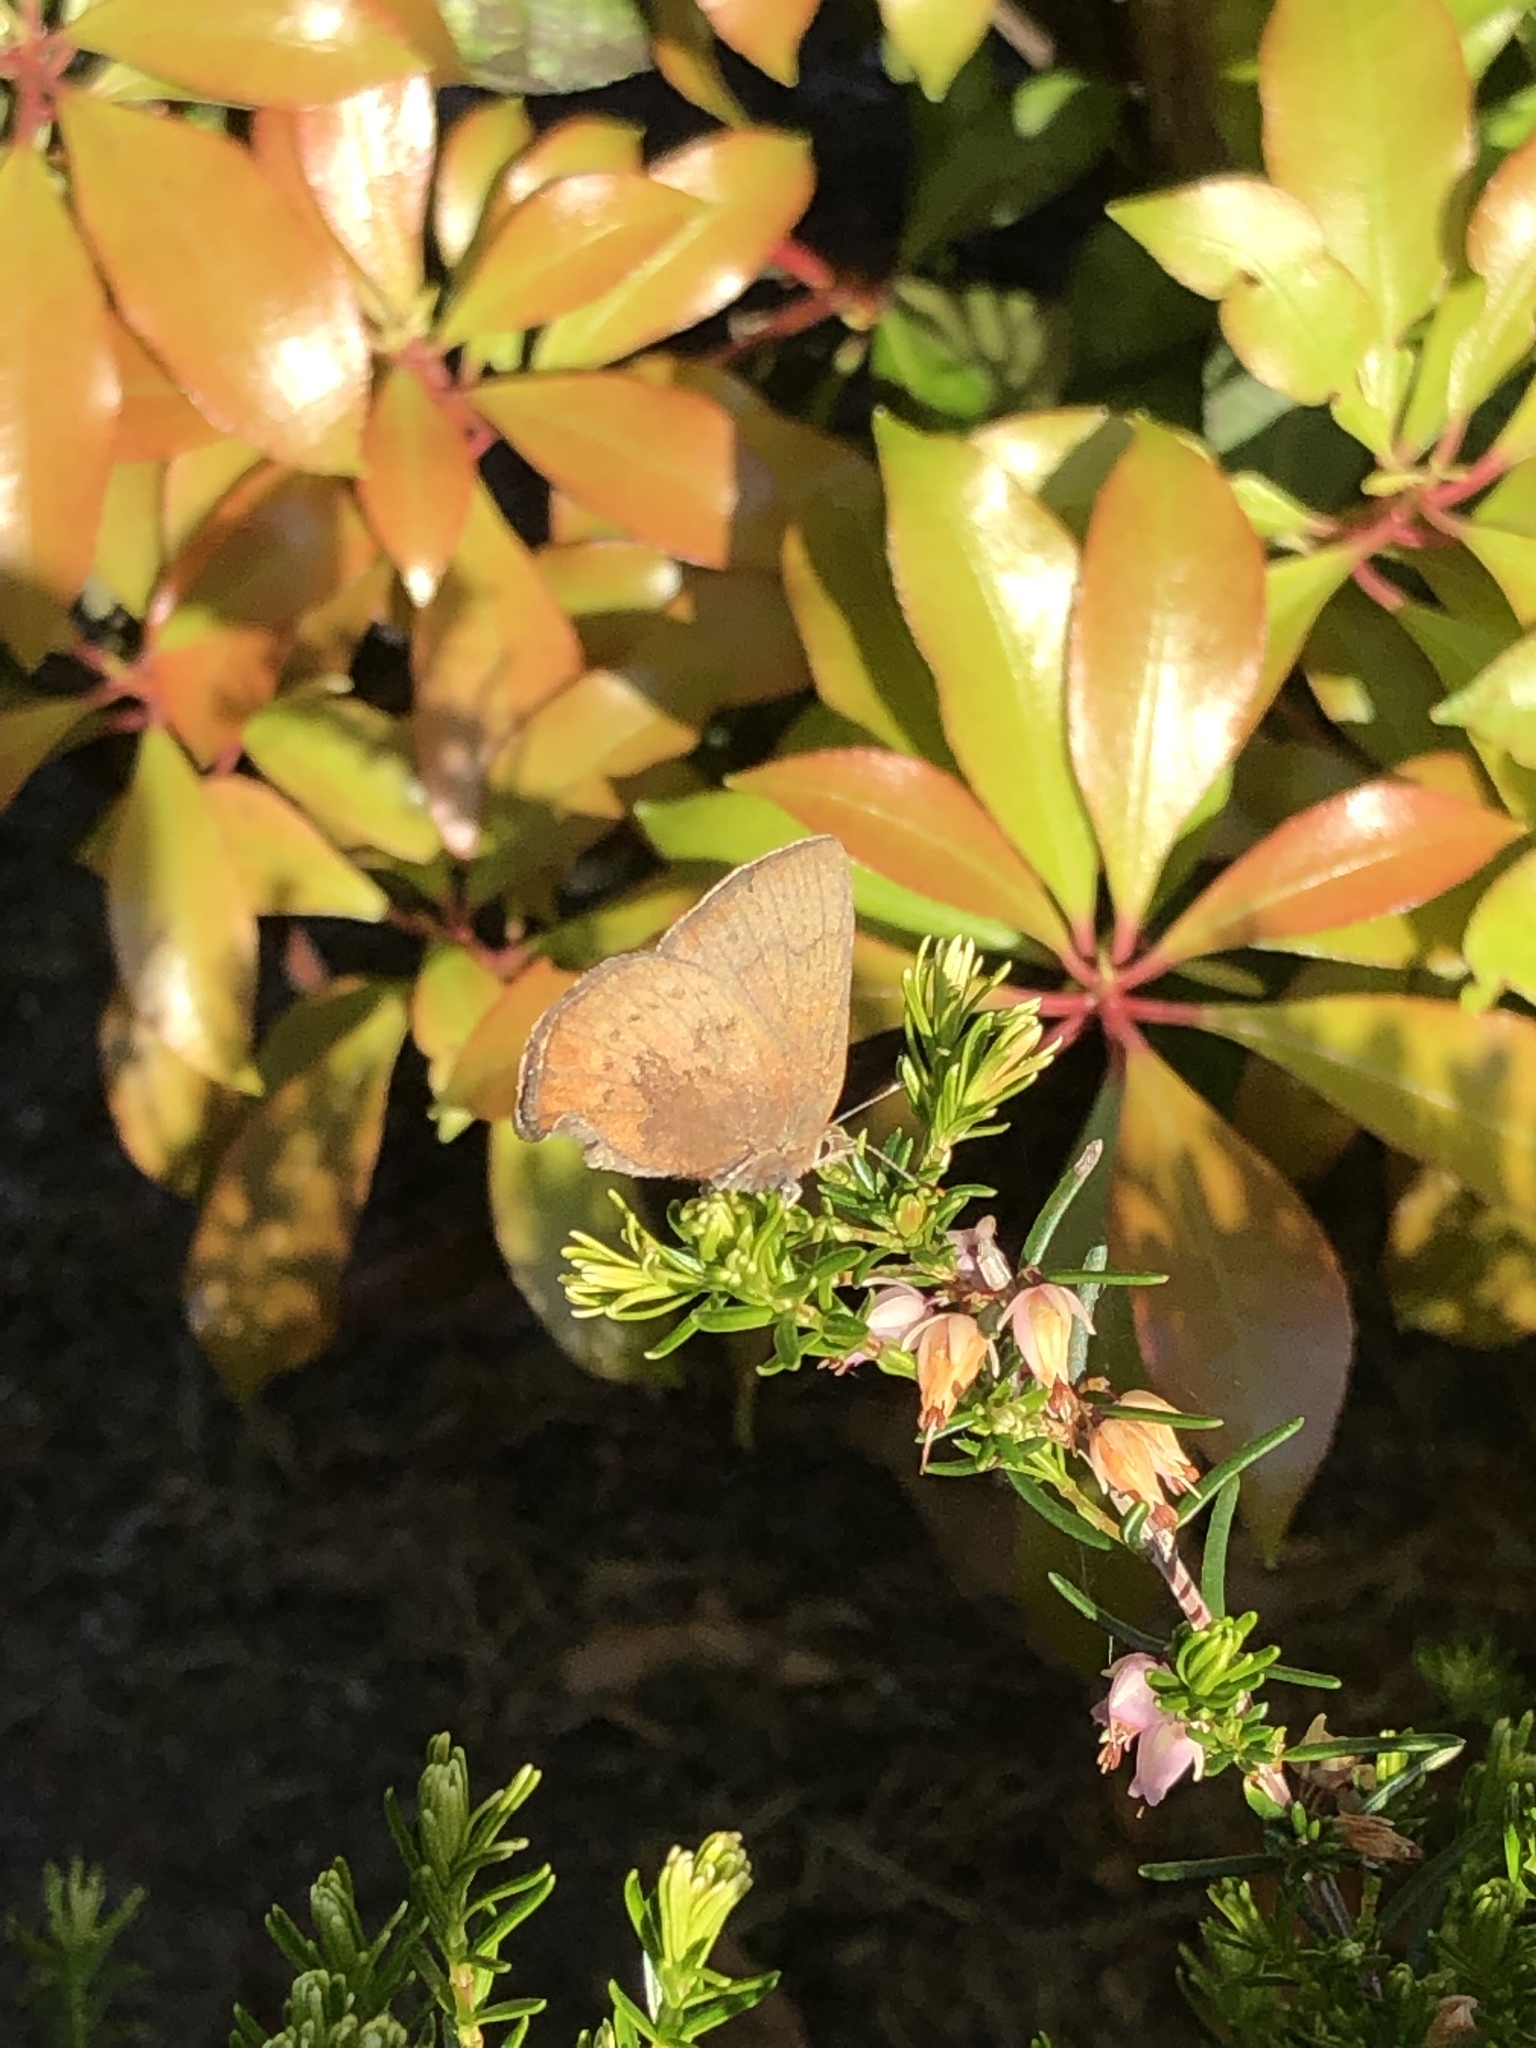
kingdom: Animalia
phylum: Arthropoda
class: Insecta
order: Lepidoptera
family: Lycaenidae
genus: Thecla
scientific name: Thecla iroides
